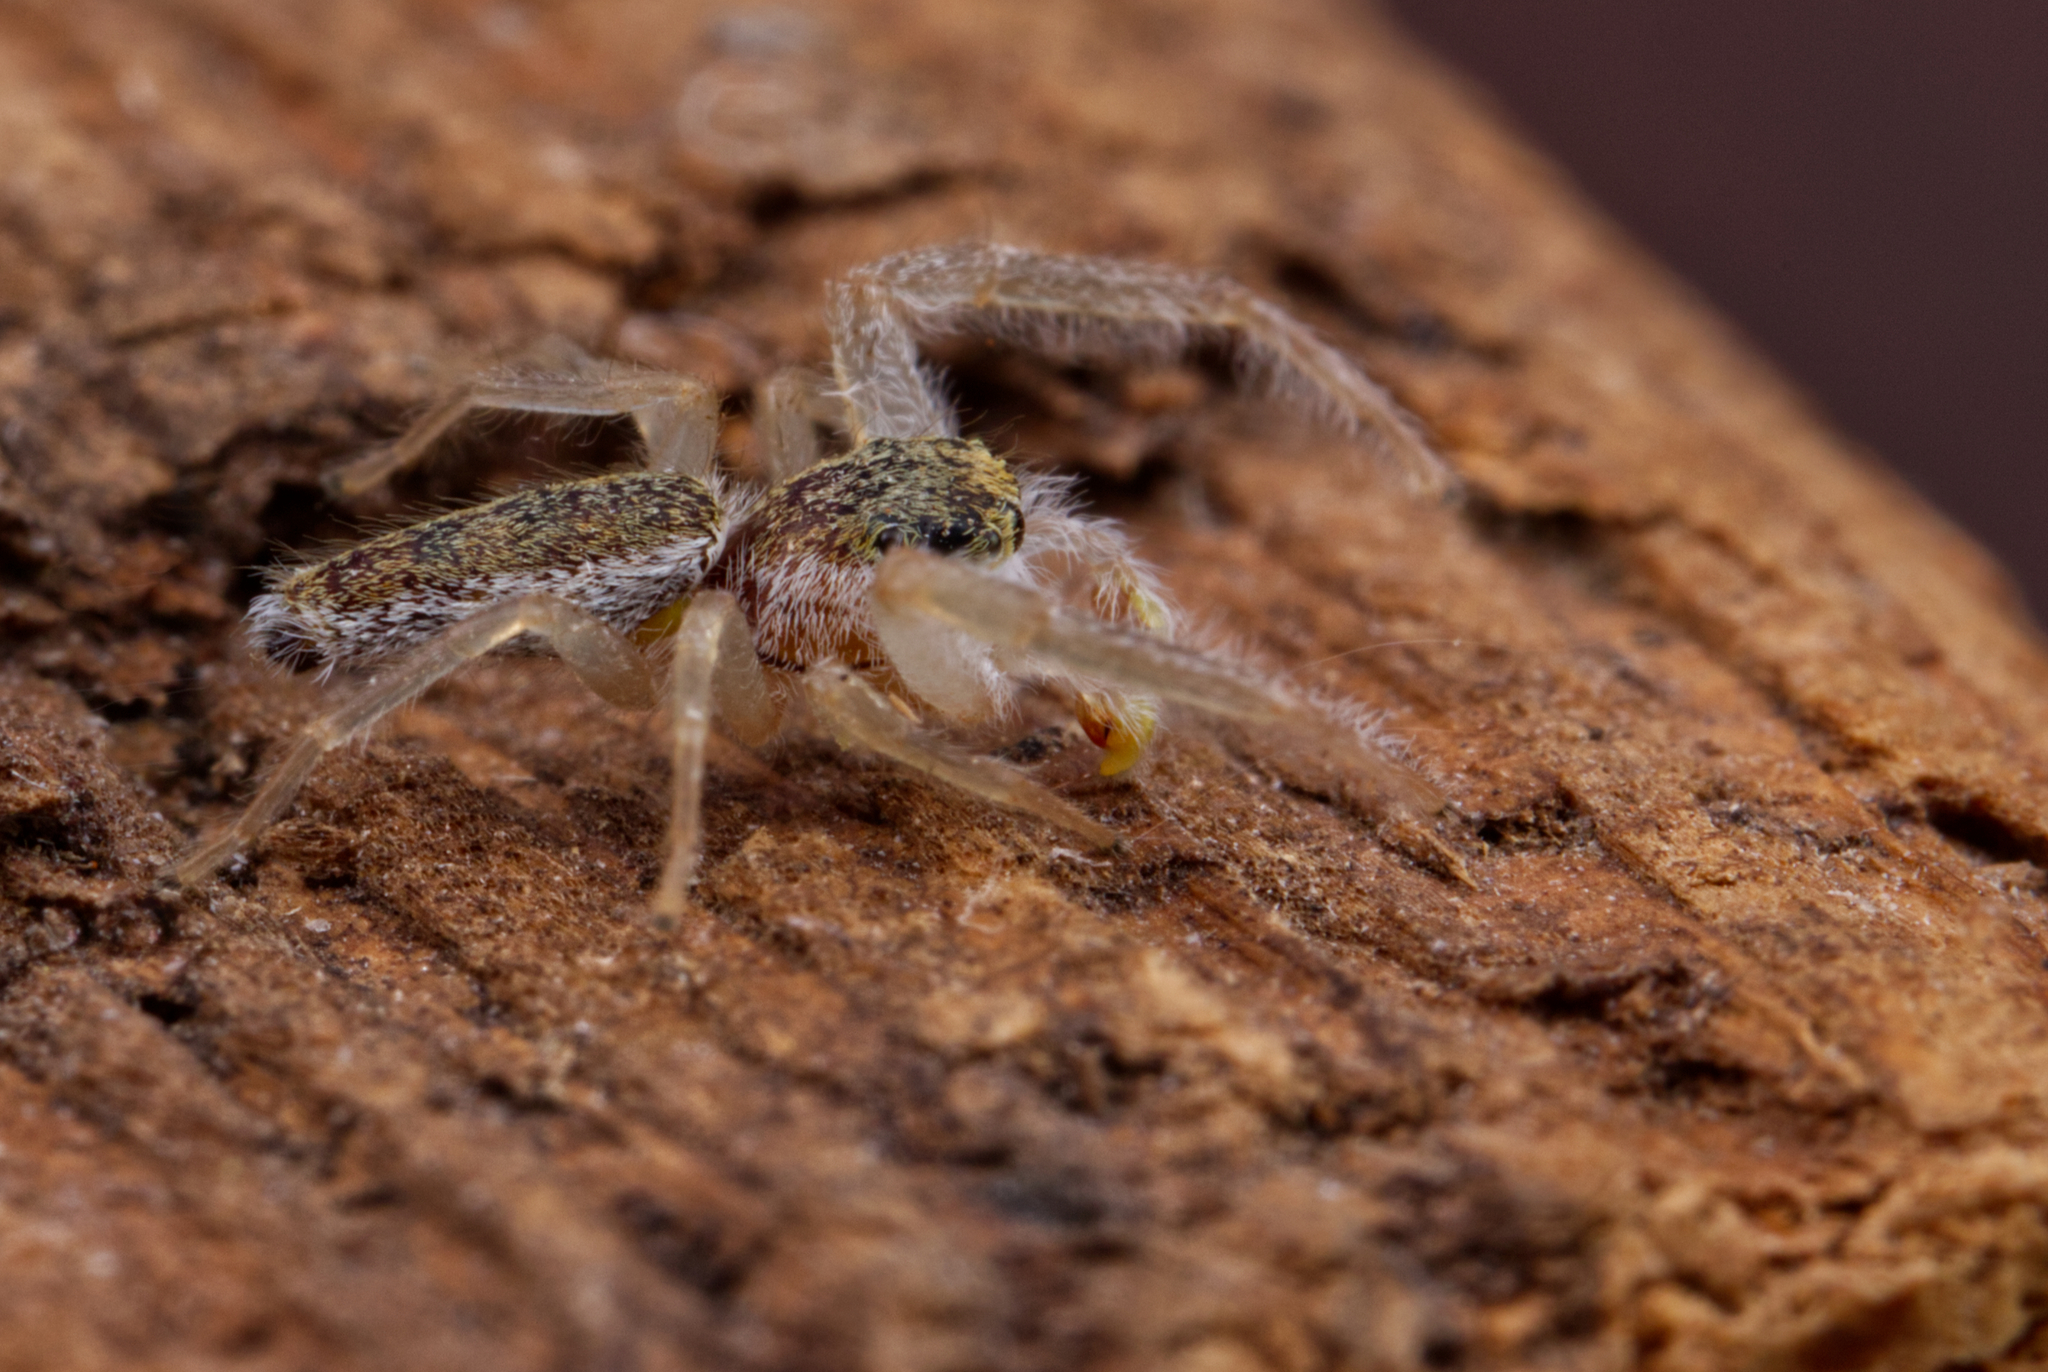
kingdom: Animalia
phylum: Arthropoda
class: Arachnida
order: Araneae
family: Salticidae
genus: Hentzia
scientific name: Hentzia mitrata
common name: White-jawed jumping spider
